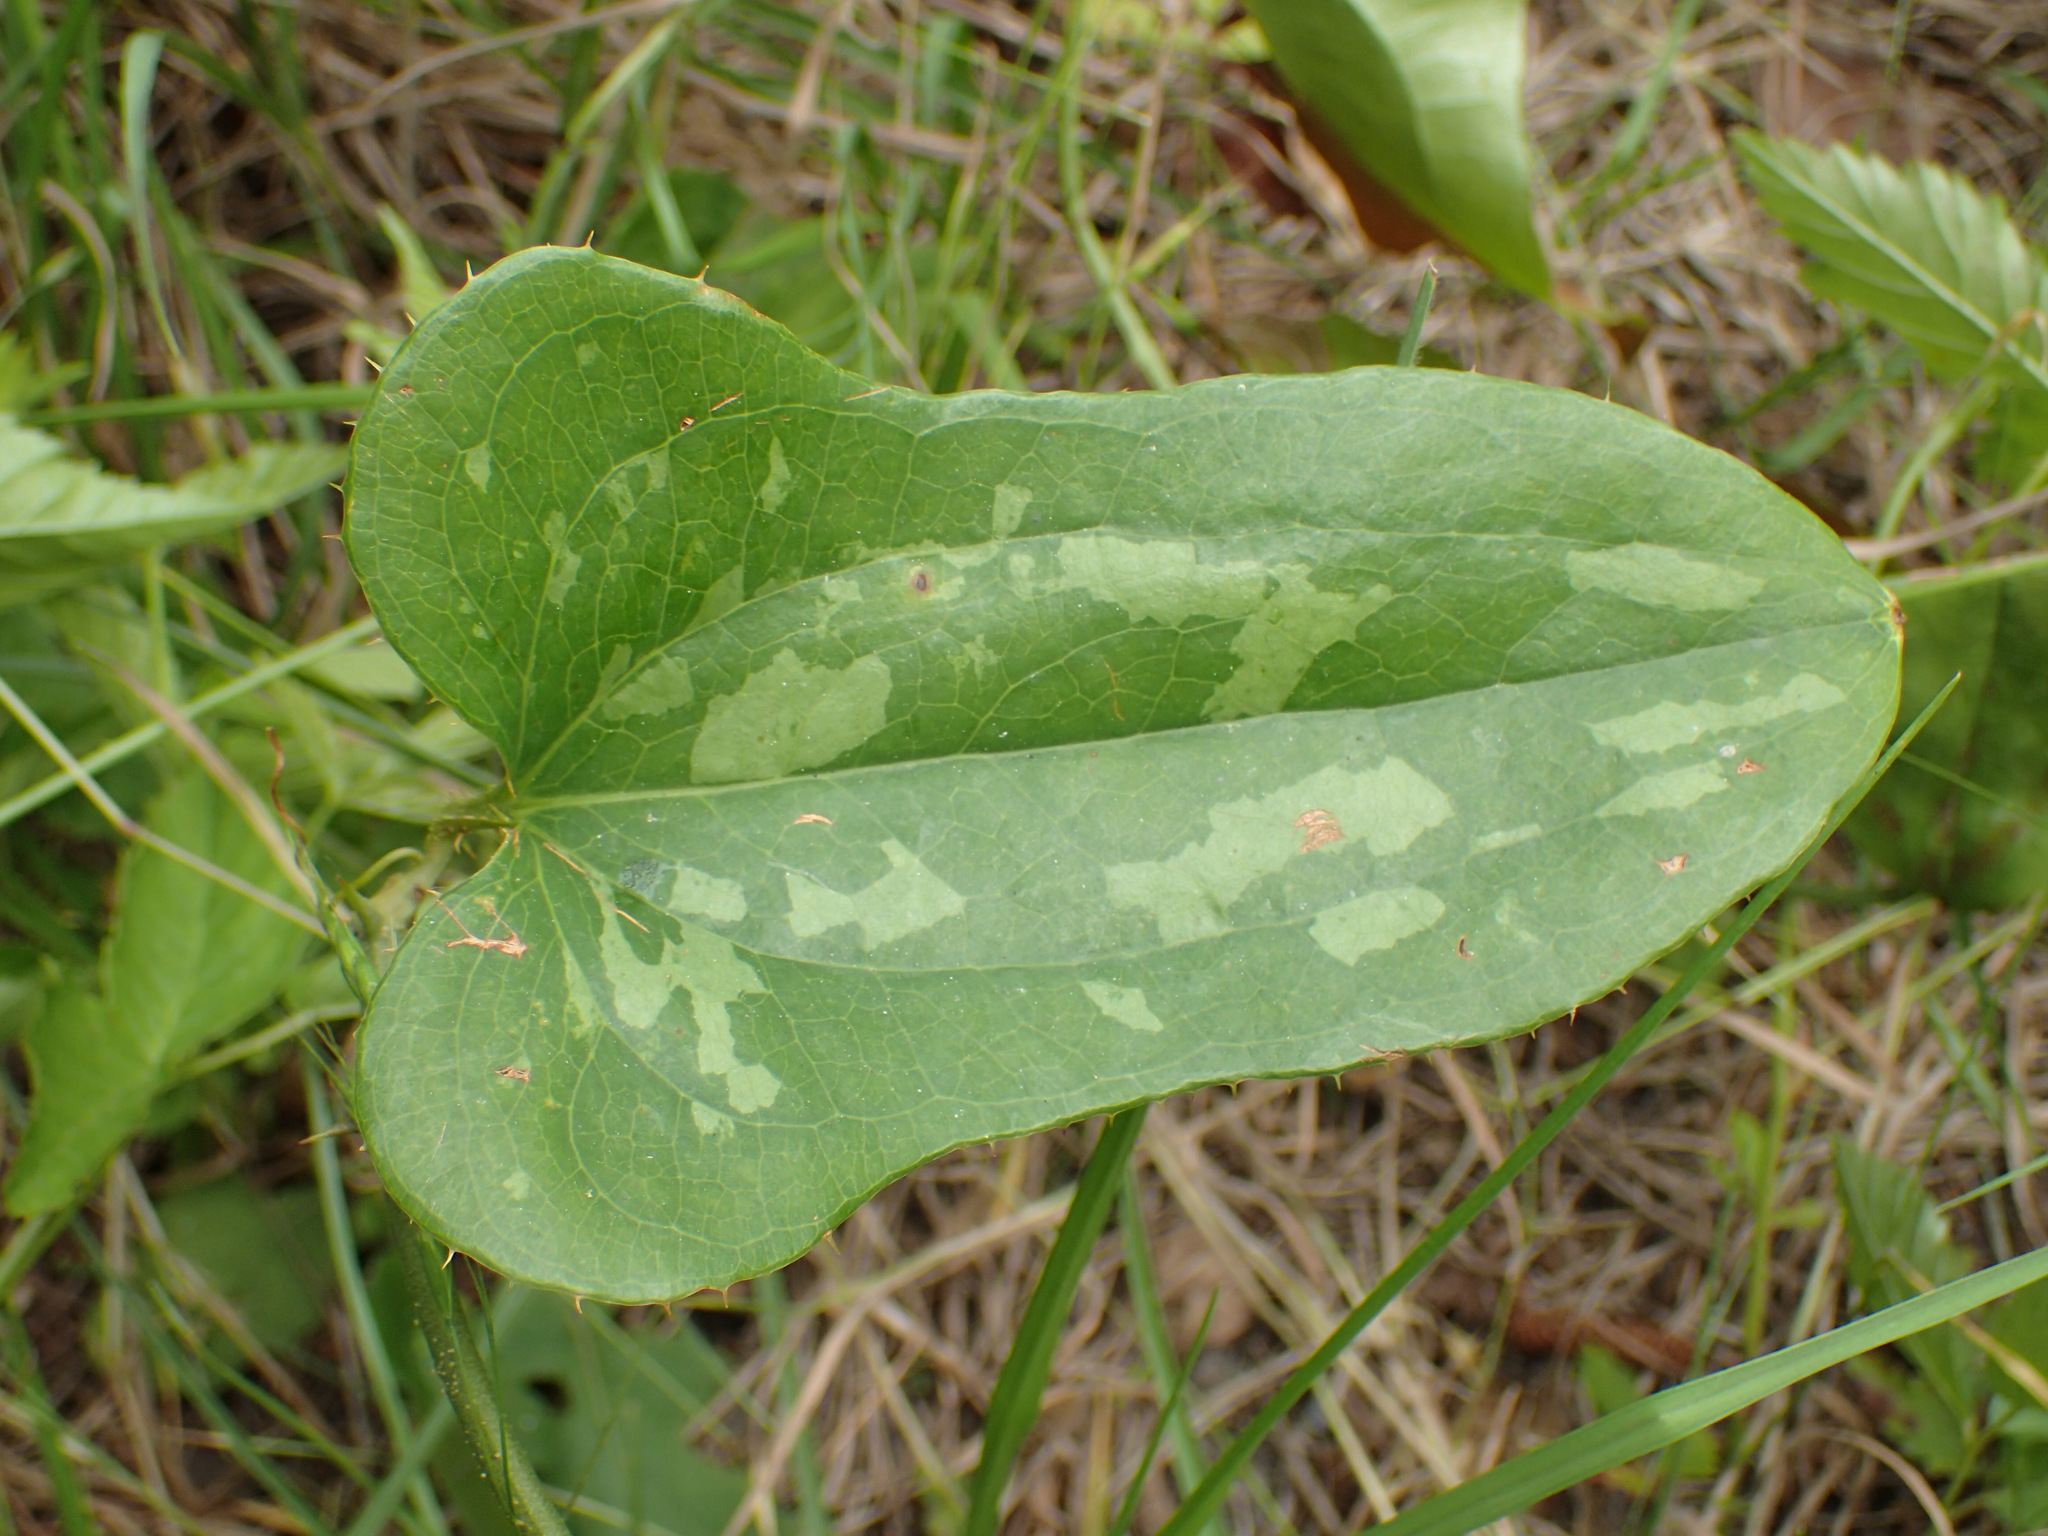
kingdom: Plantae
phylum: Tracheophyta
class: Liliopsida
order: Liliales
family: Smilacaceae
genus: Smilax
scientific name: Smilax bona-nox
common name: Catbrier
